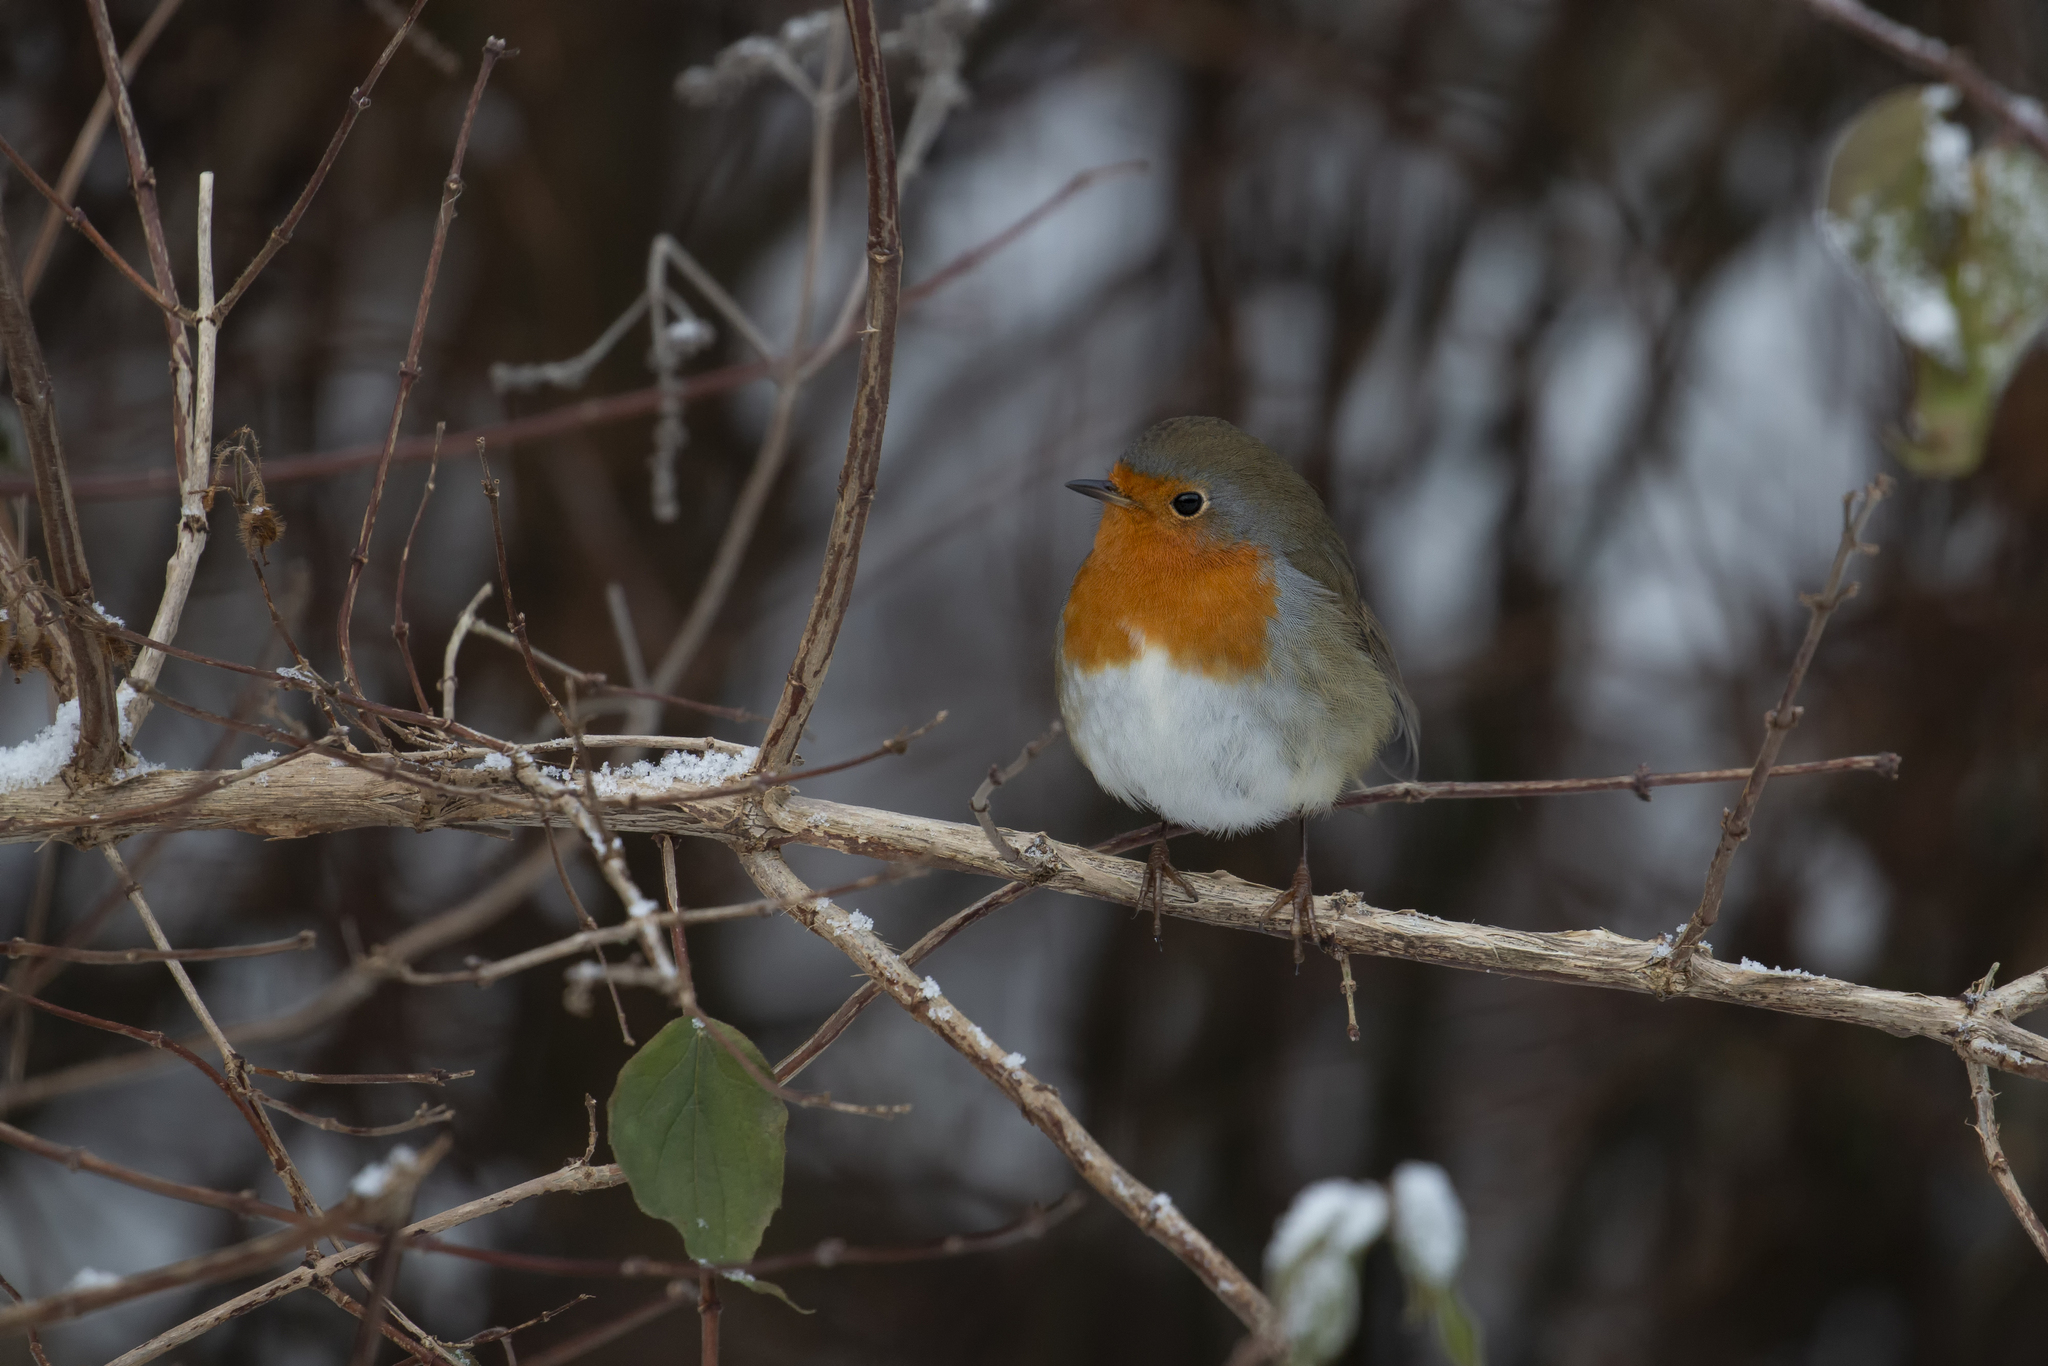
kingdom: Animalia
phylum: Chordata
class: Aves
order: Passeriformes
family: Muscicapidae
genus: Erithacus
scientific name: Erithacus rubecula
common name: European robin
